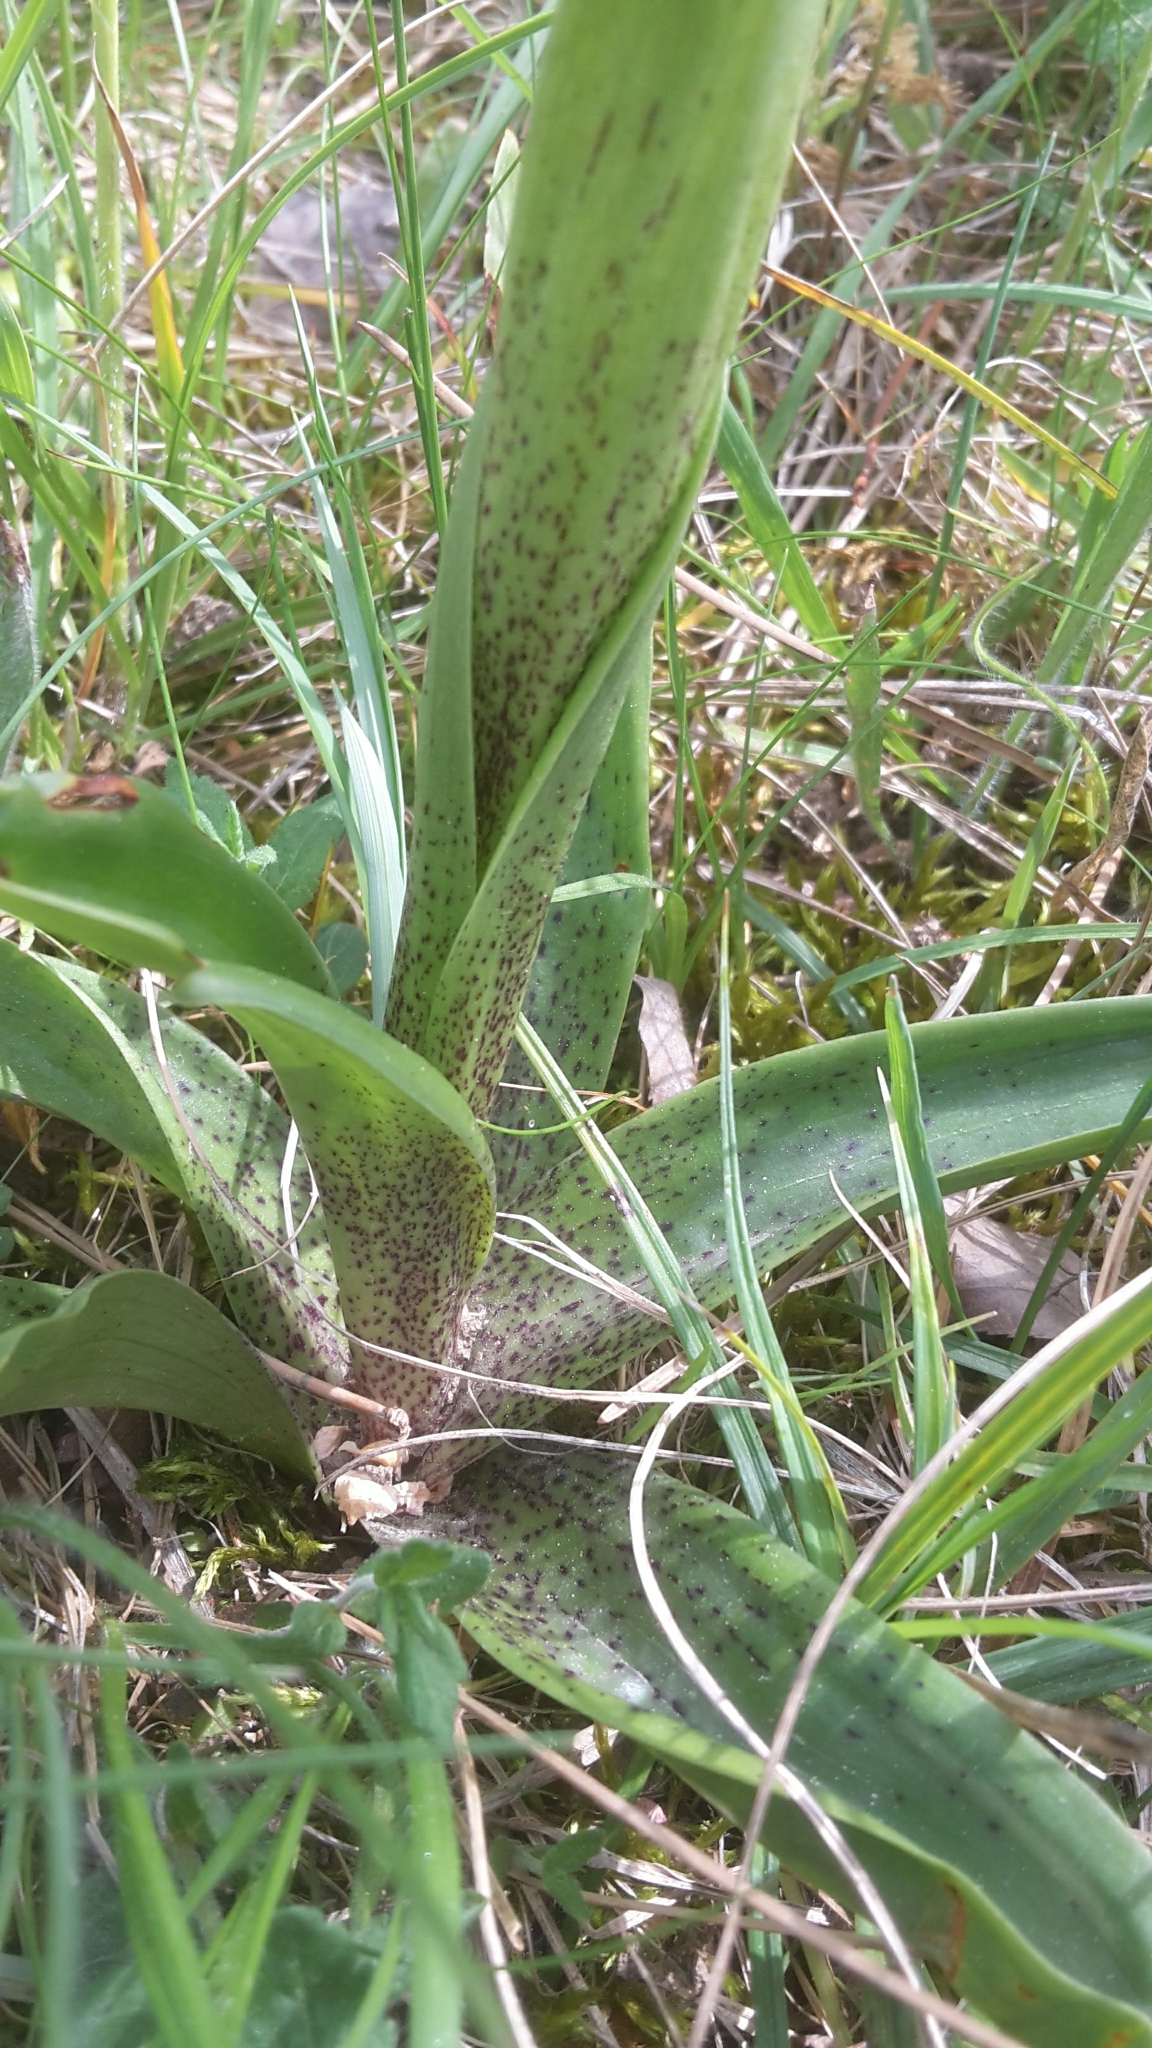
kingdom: Plantae
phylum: Tracheophyta
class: Liliopsida
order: Asparagales
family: Orchidaceae
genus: Orchis
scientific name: Orchis mascula
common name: Early-purple orchid
